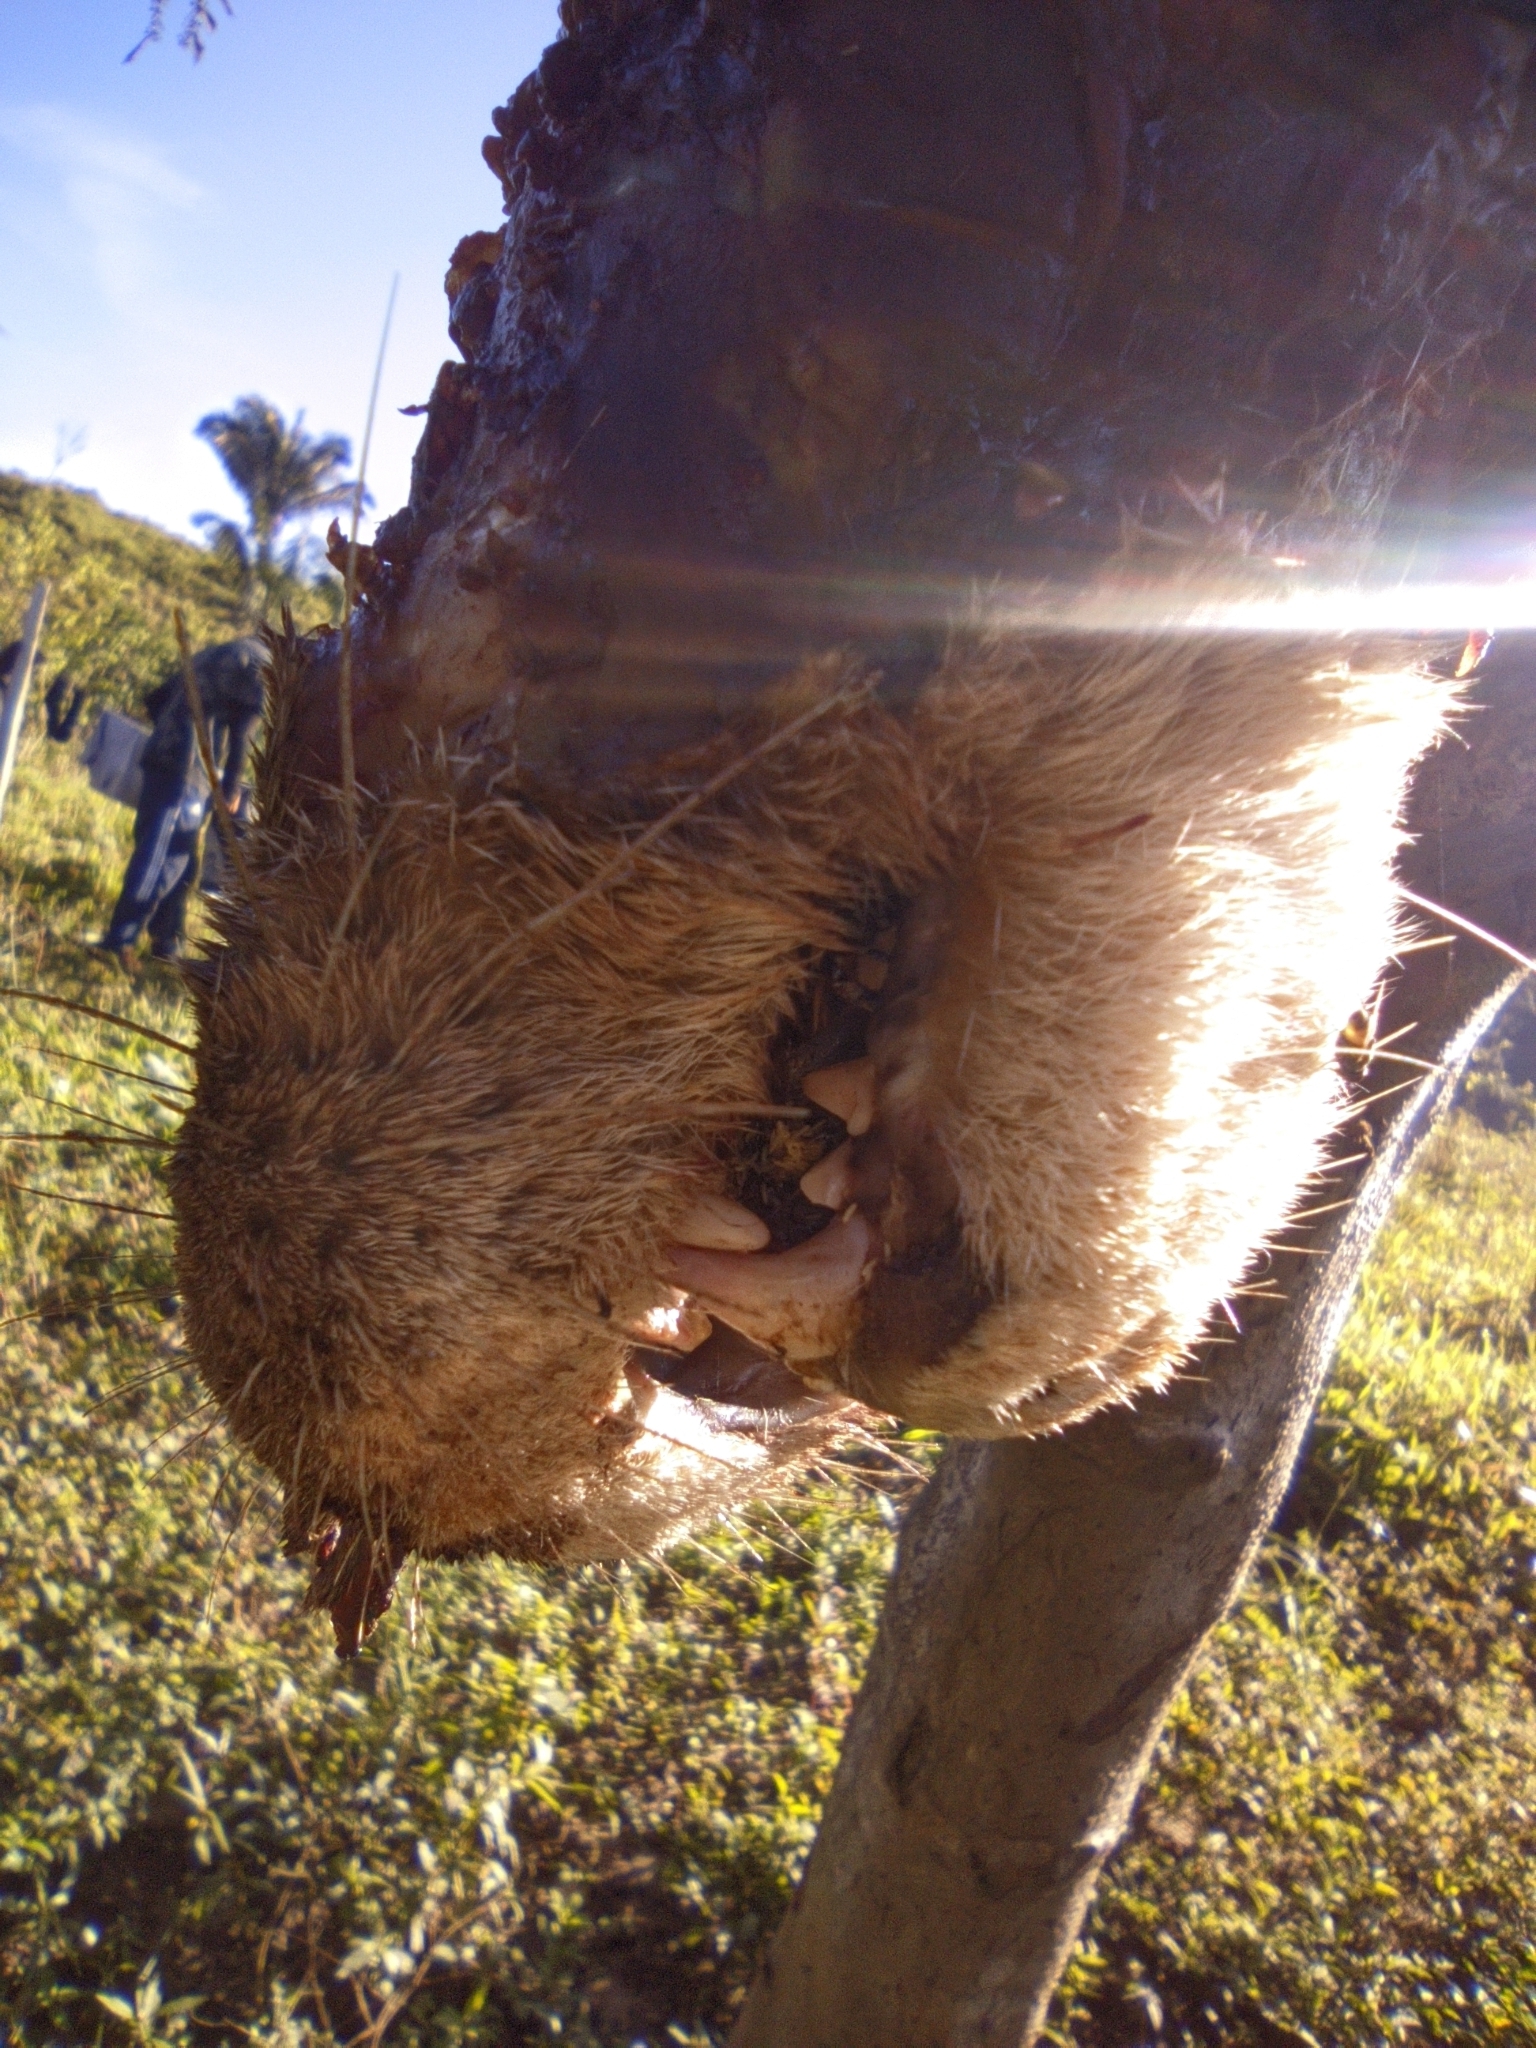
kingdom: Animalia
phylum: Chordata
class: Mammalia
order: Carnivora
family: Mustelidae
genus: Lontra
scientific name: Lontra longicaudis
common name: Neotropical otter
